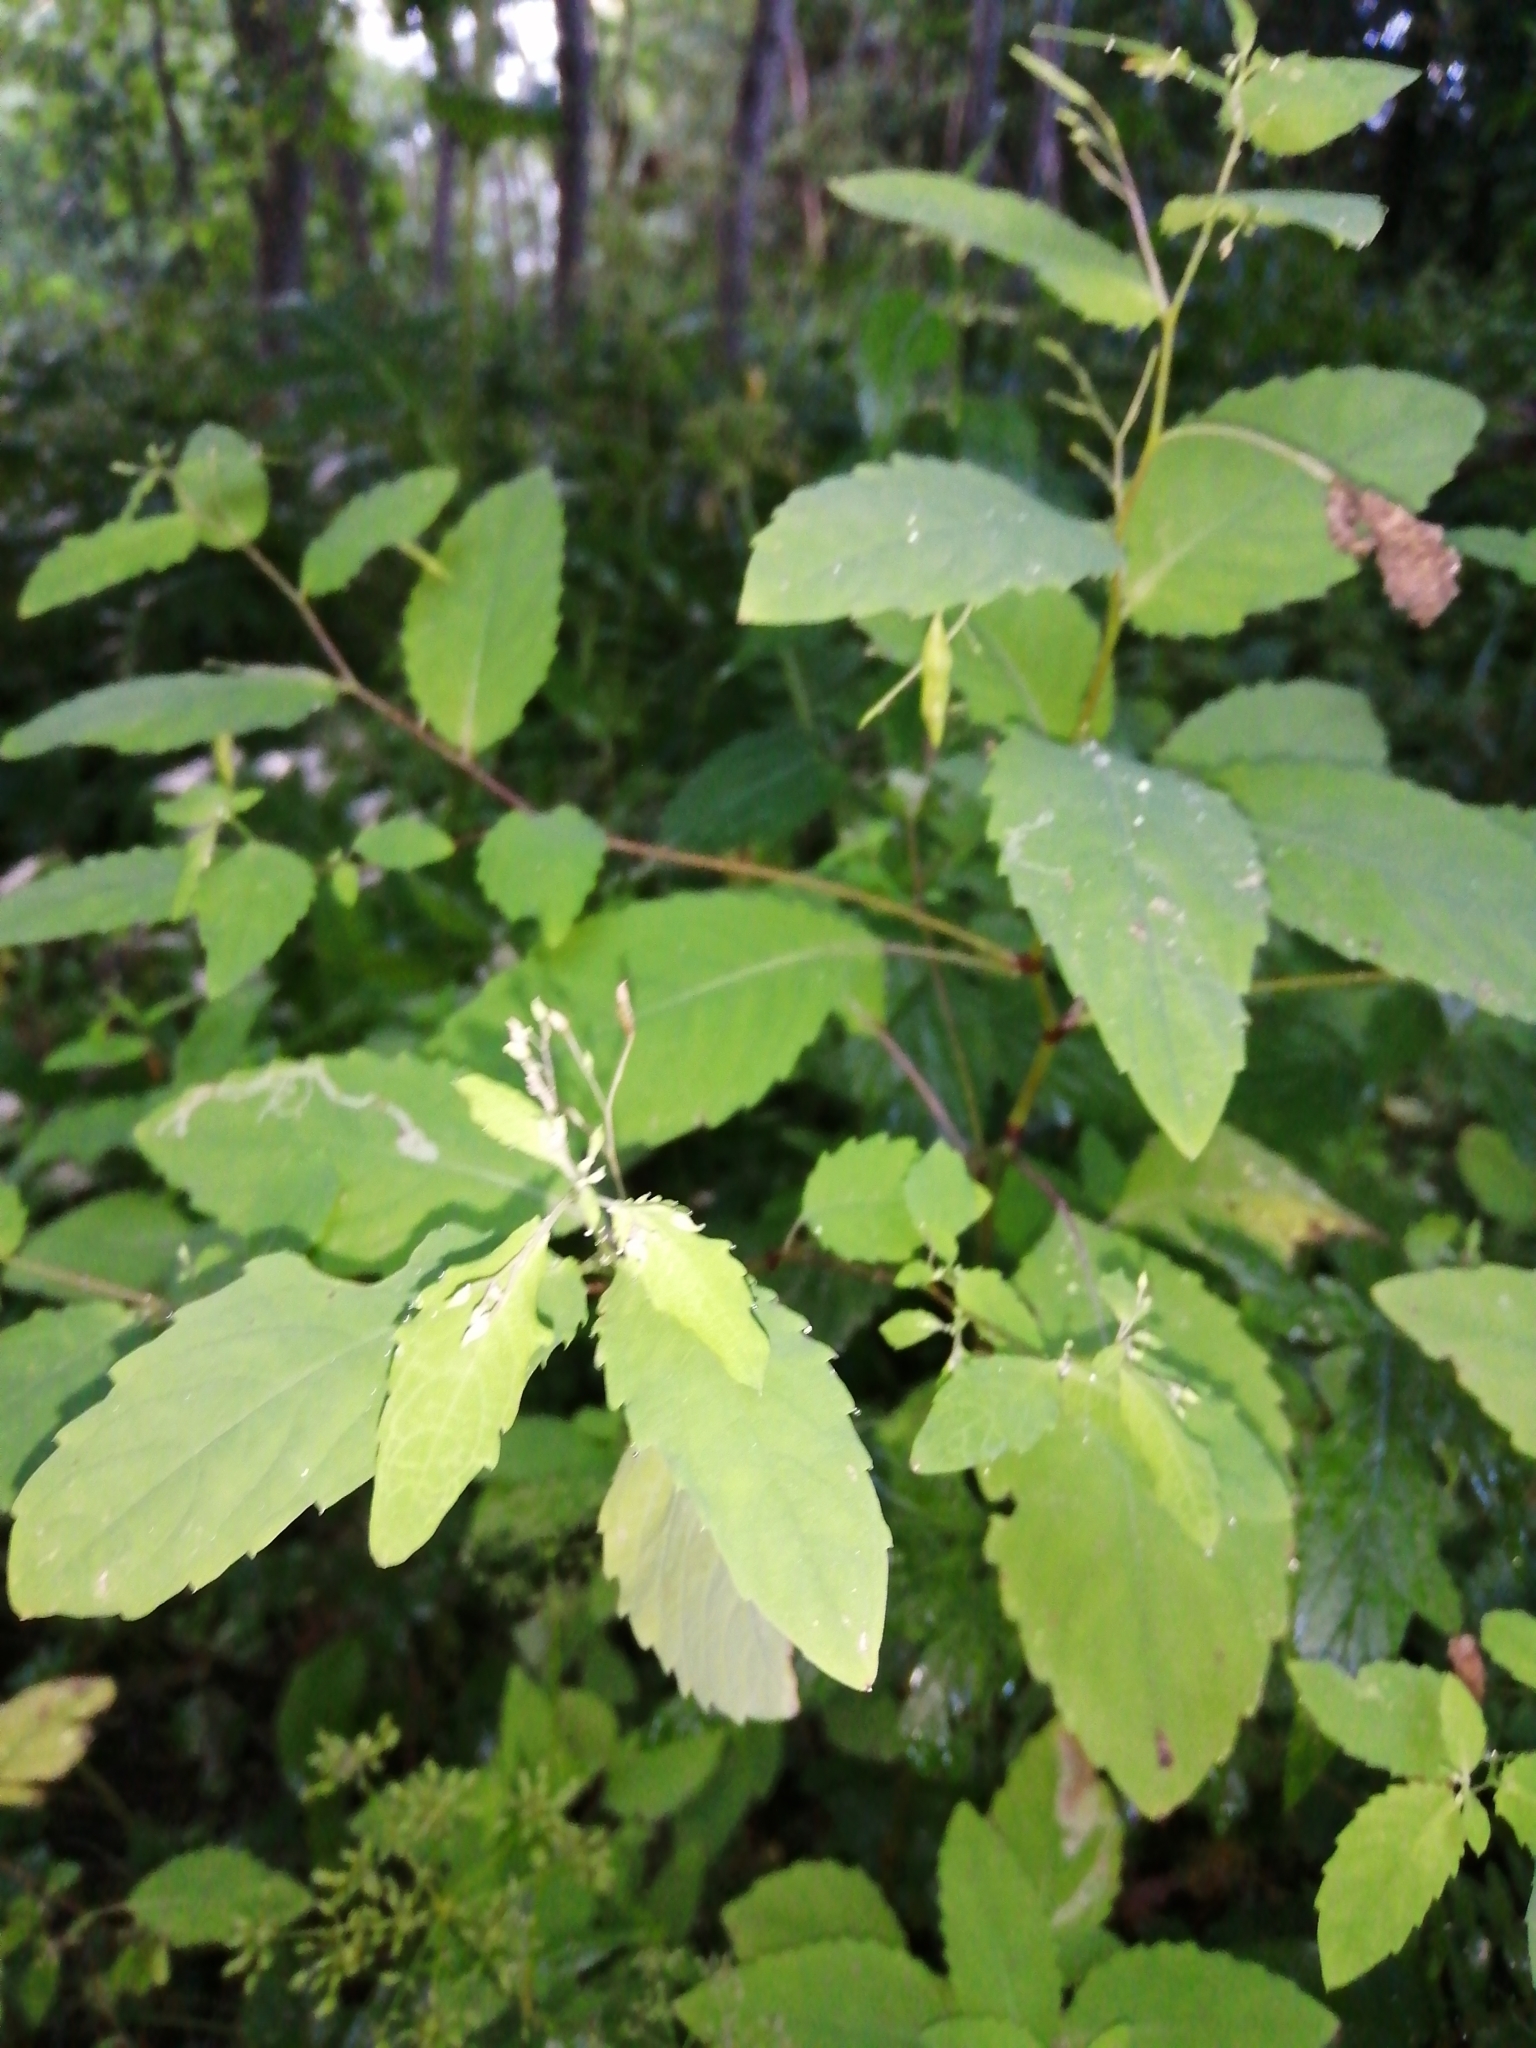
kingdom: Plantae
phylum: Tracheophyta
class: Magnoliopsida
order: Ericales
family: Balsaminaceae
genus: Impatiens
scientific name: Impatiens noli-tangere
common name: Touch-me-not balsam
